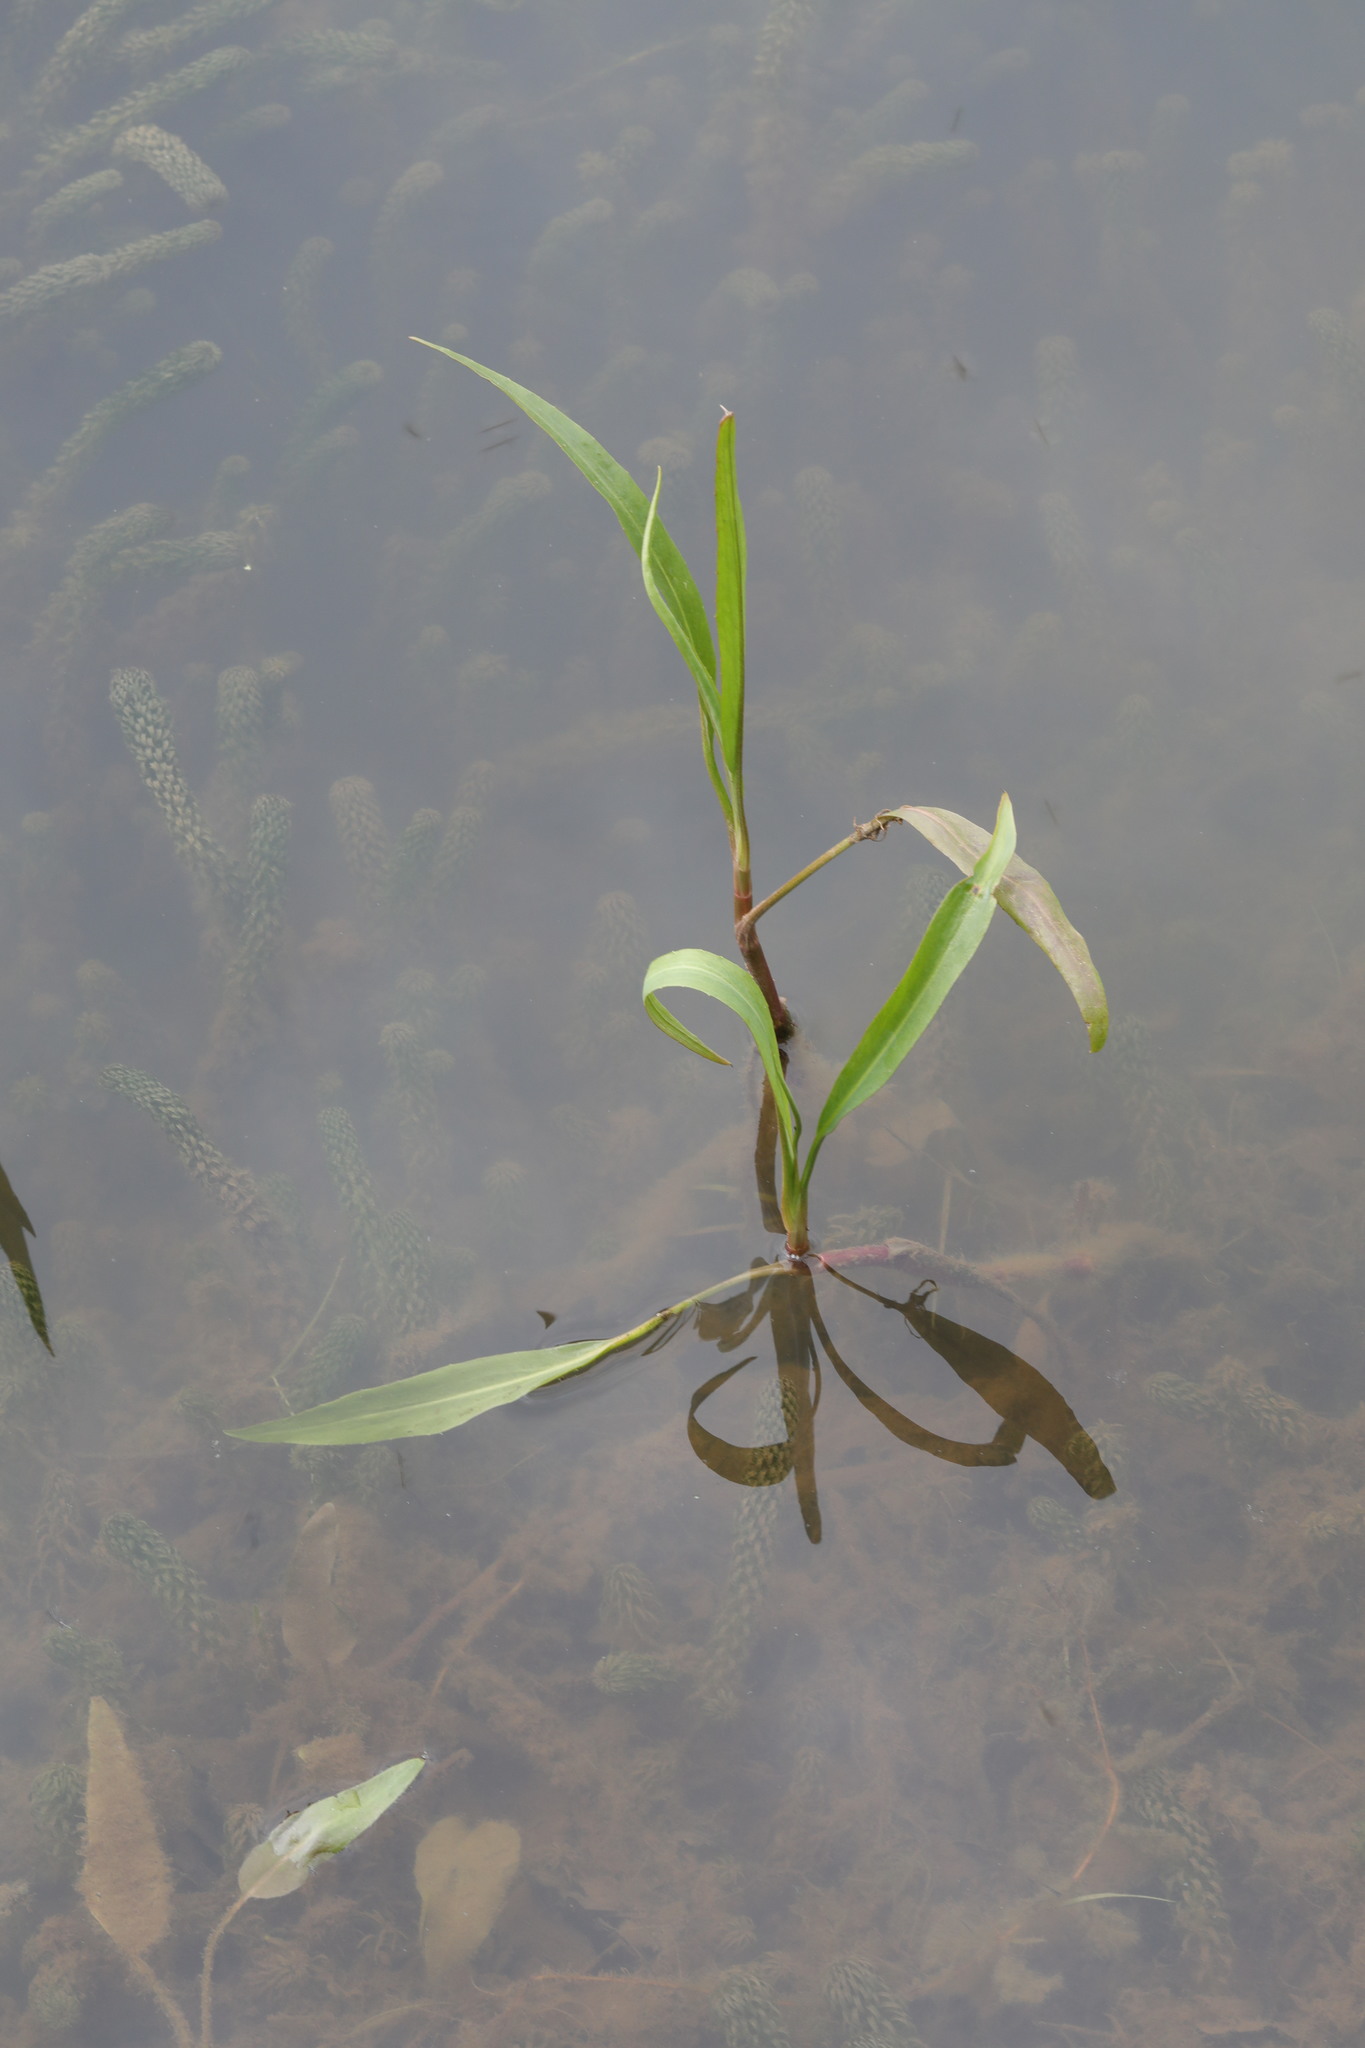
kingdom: Plantae
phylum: Tracheophyta
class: Magnoliopsida
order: Ranunculales
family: Ranunculaceae
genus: Ranunculus
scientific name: Ranunculus flammula
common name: Lesser spearwort
